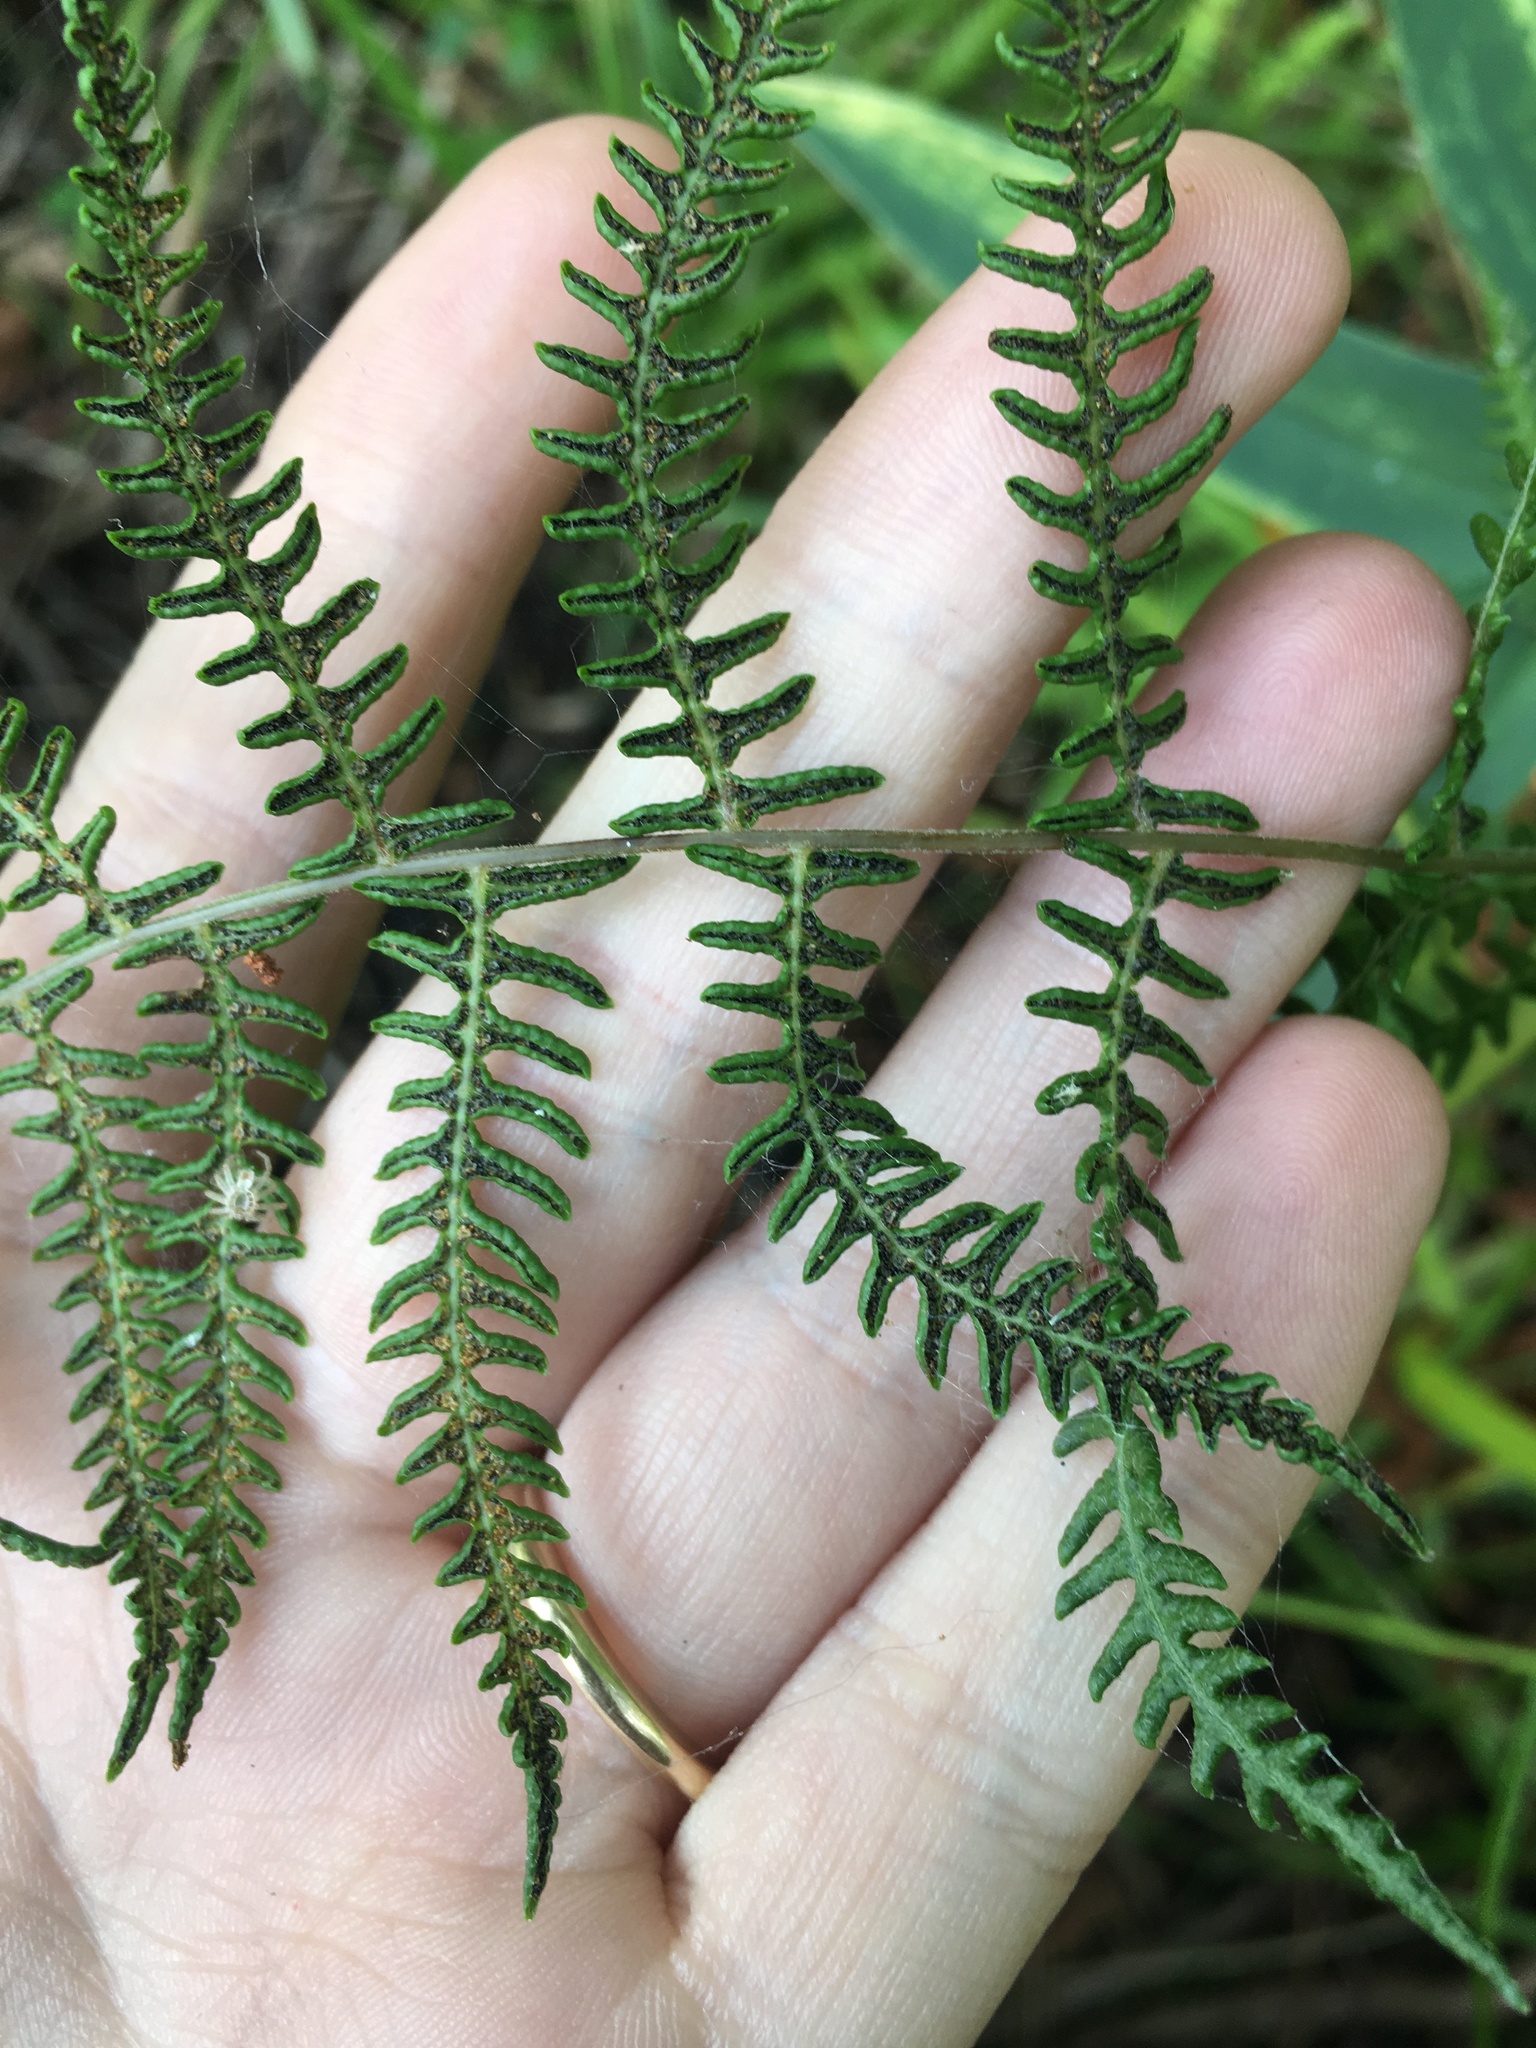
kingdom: Plantae
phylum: Tracheophyta
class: Polypodiopsida
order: Polypodiales
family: Thelypteridaceae
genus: Thelypteris
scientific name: Thelypteris palustris
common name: Marsh fern
